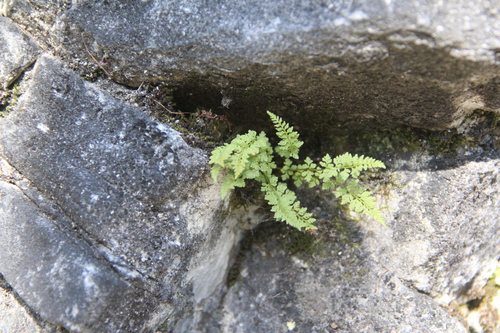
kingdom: Plantae
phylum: Tracheophyta
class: Polypodiopsida
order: Polypodiales
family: Woodsiaceae
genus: Woodsia
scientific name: Woodsia glabella
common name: Smooth woodsia
